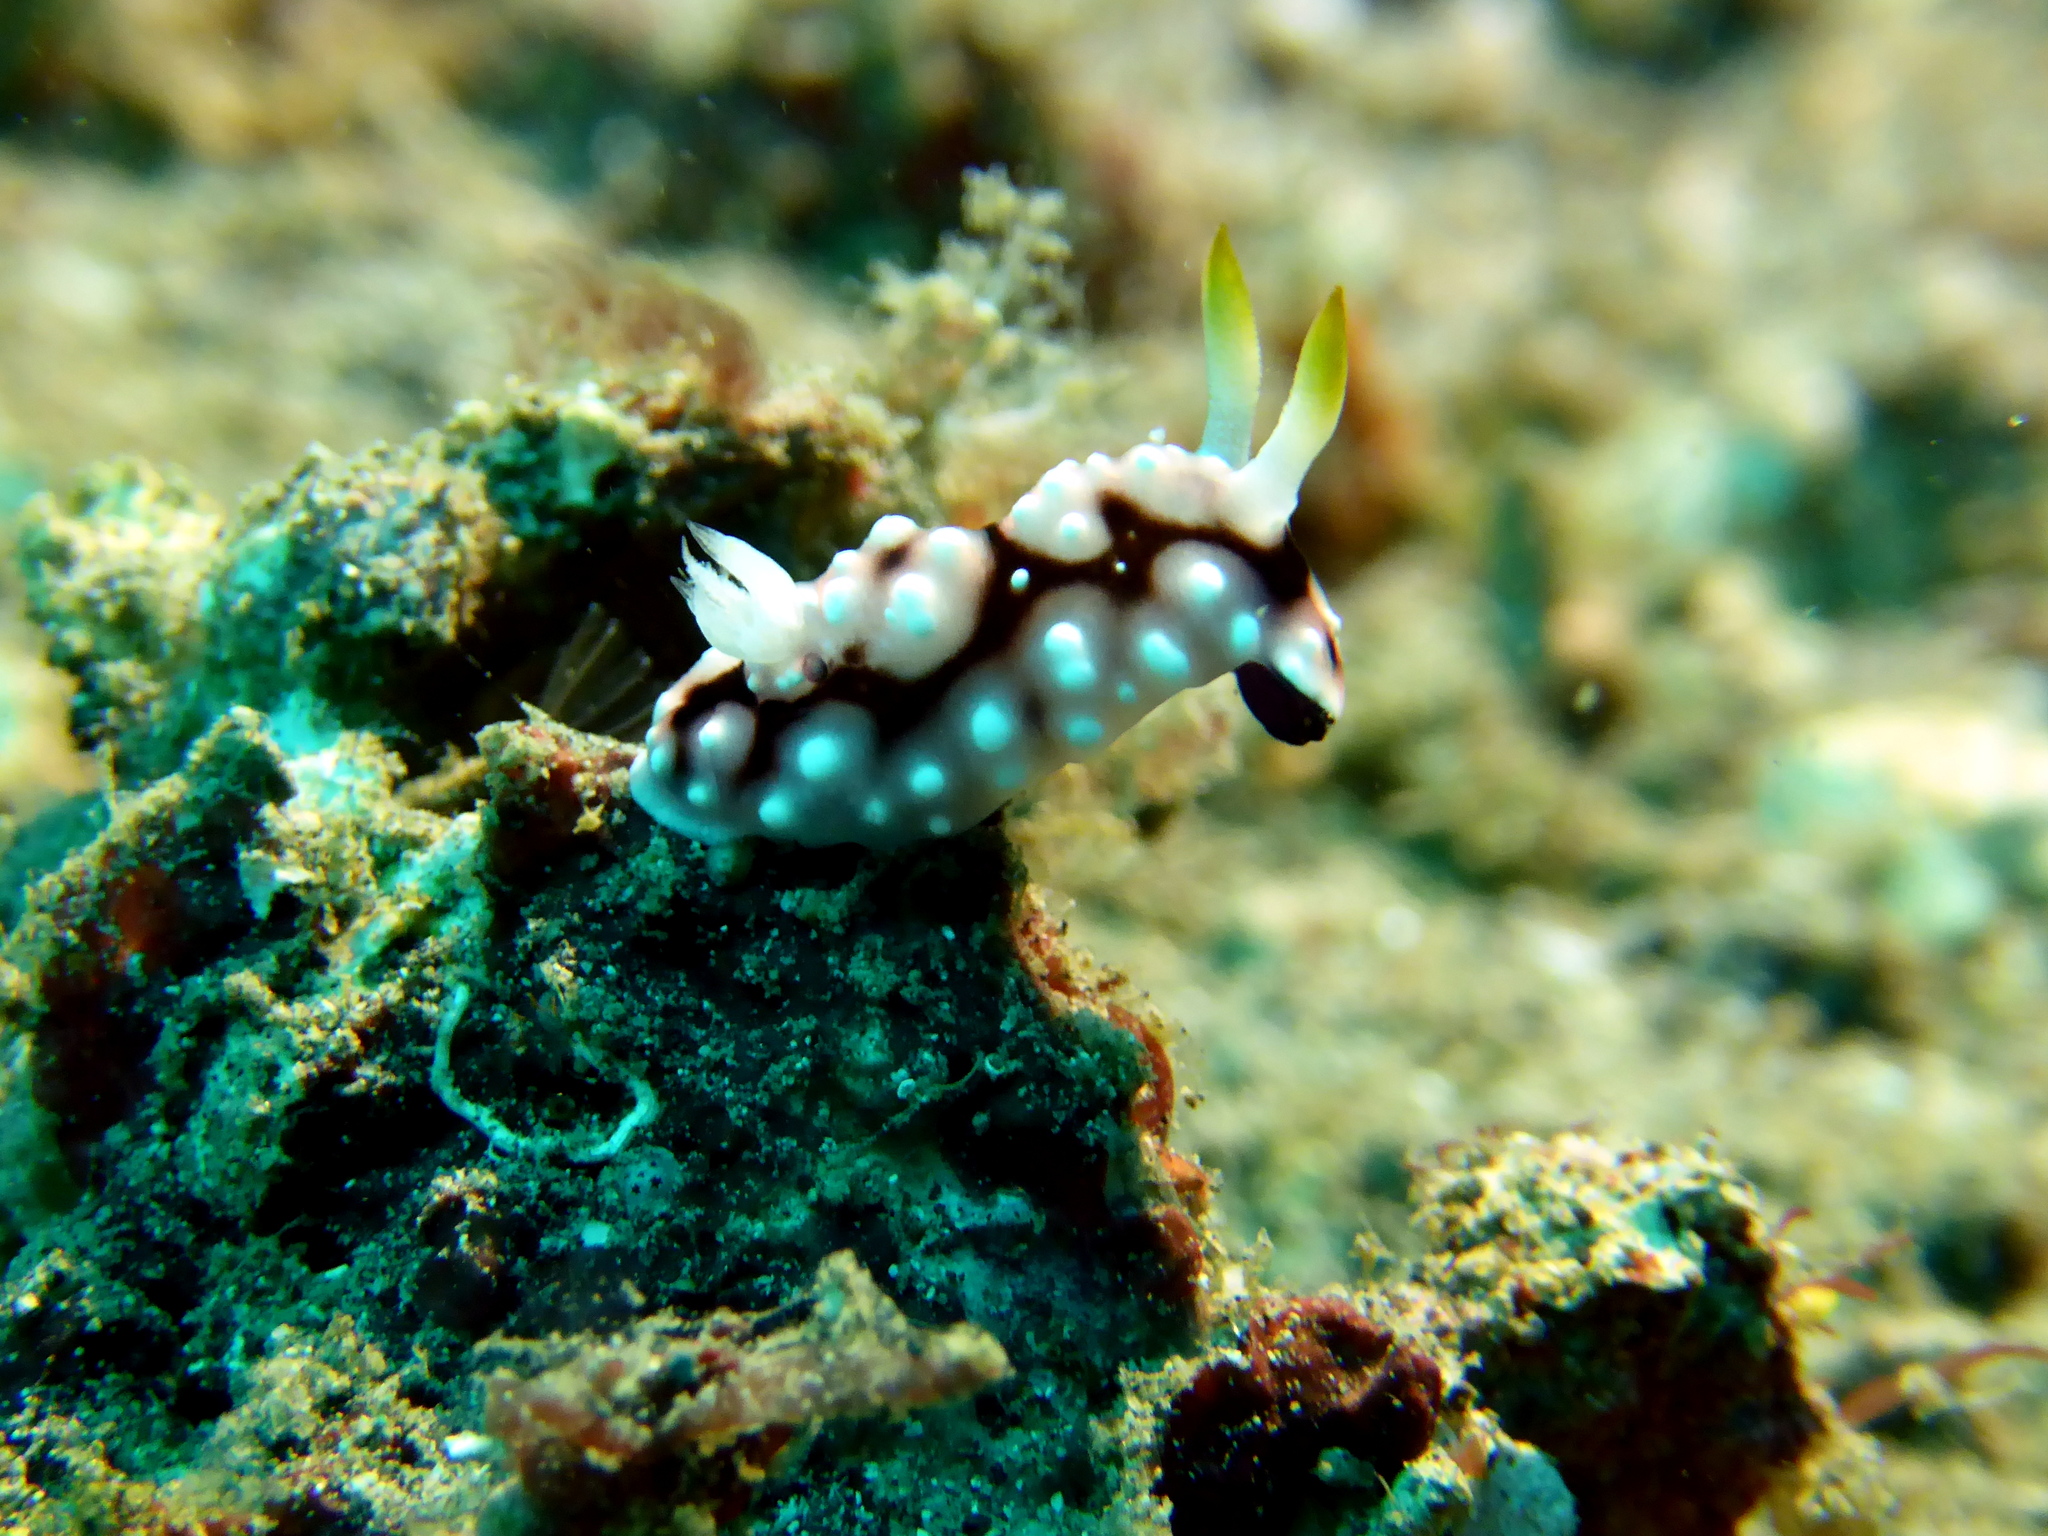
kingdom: Animalia
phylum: Mollusca
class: Gastropoda
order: Nudibranchia
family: Chromodorididae
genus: Goniobranchus
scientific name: Goniobranchus geometricus
